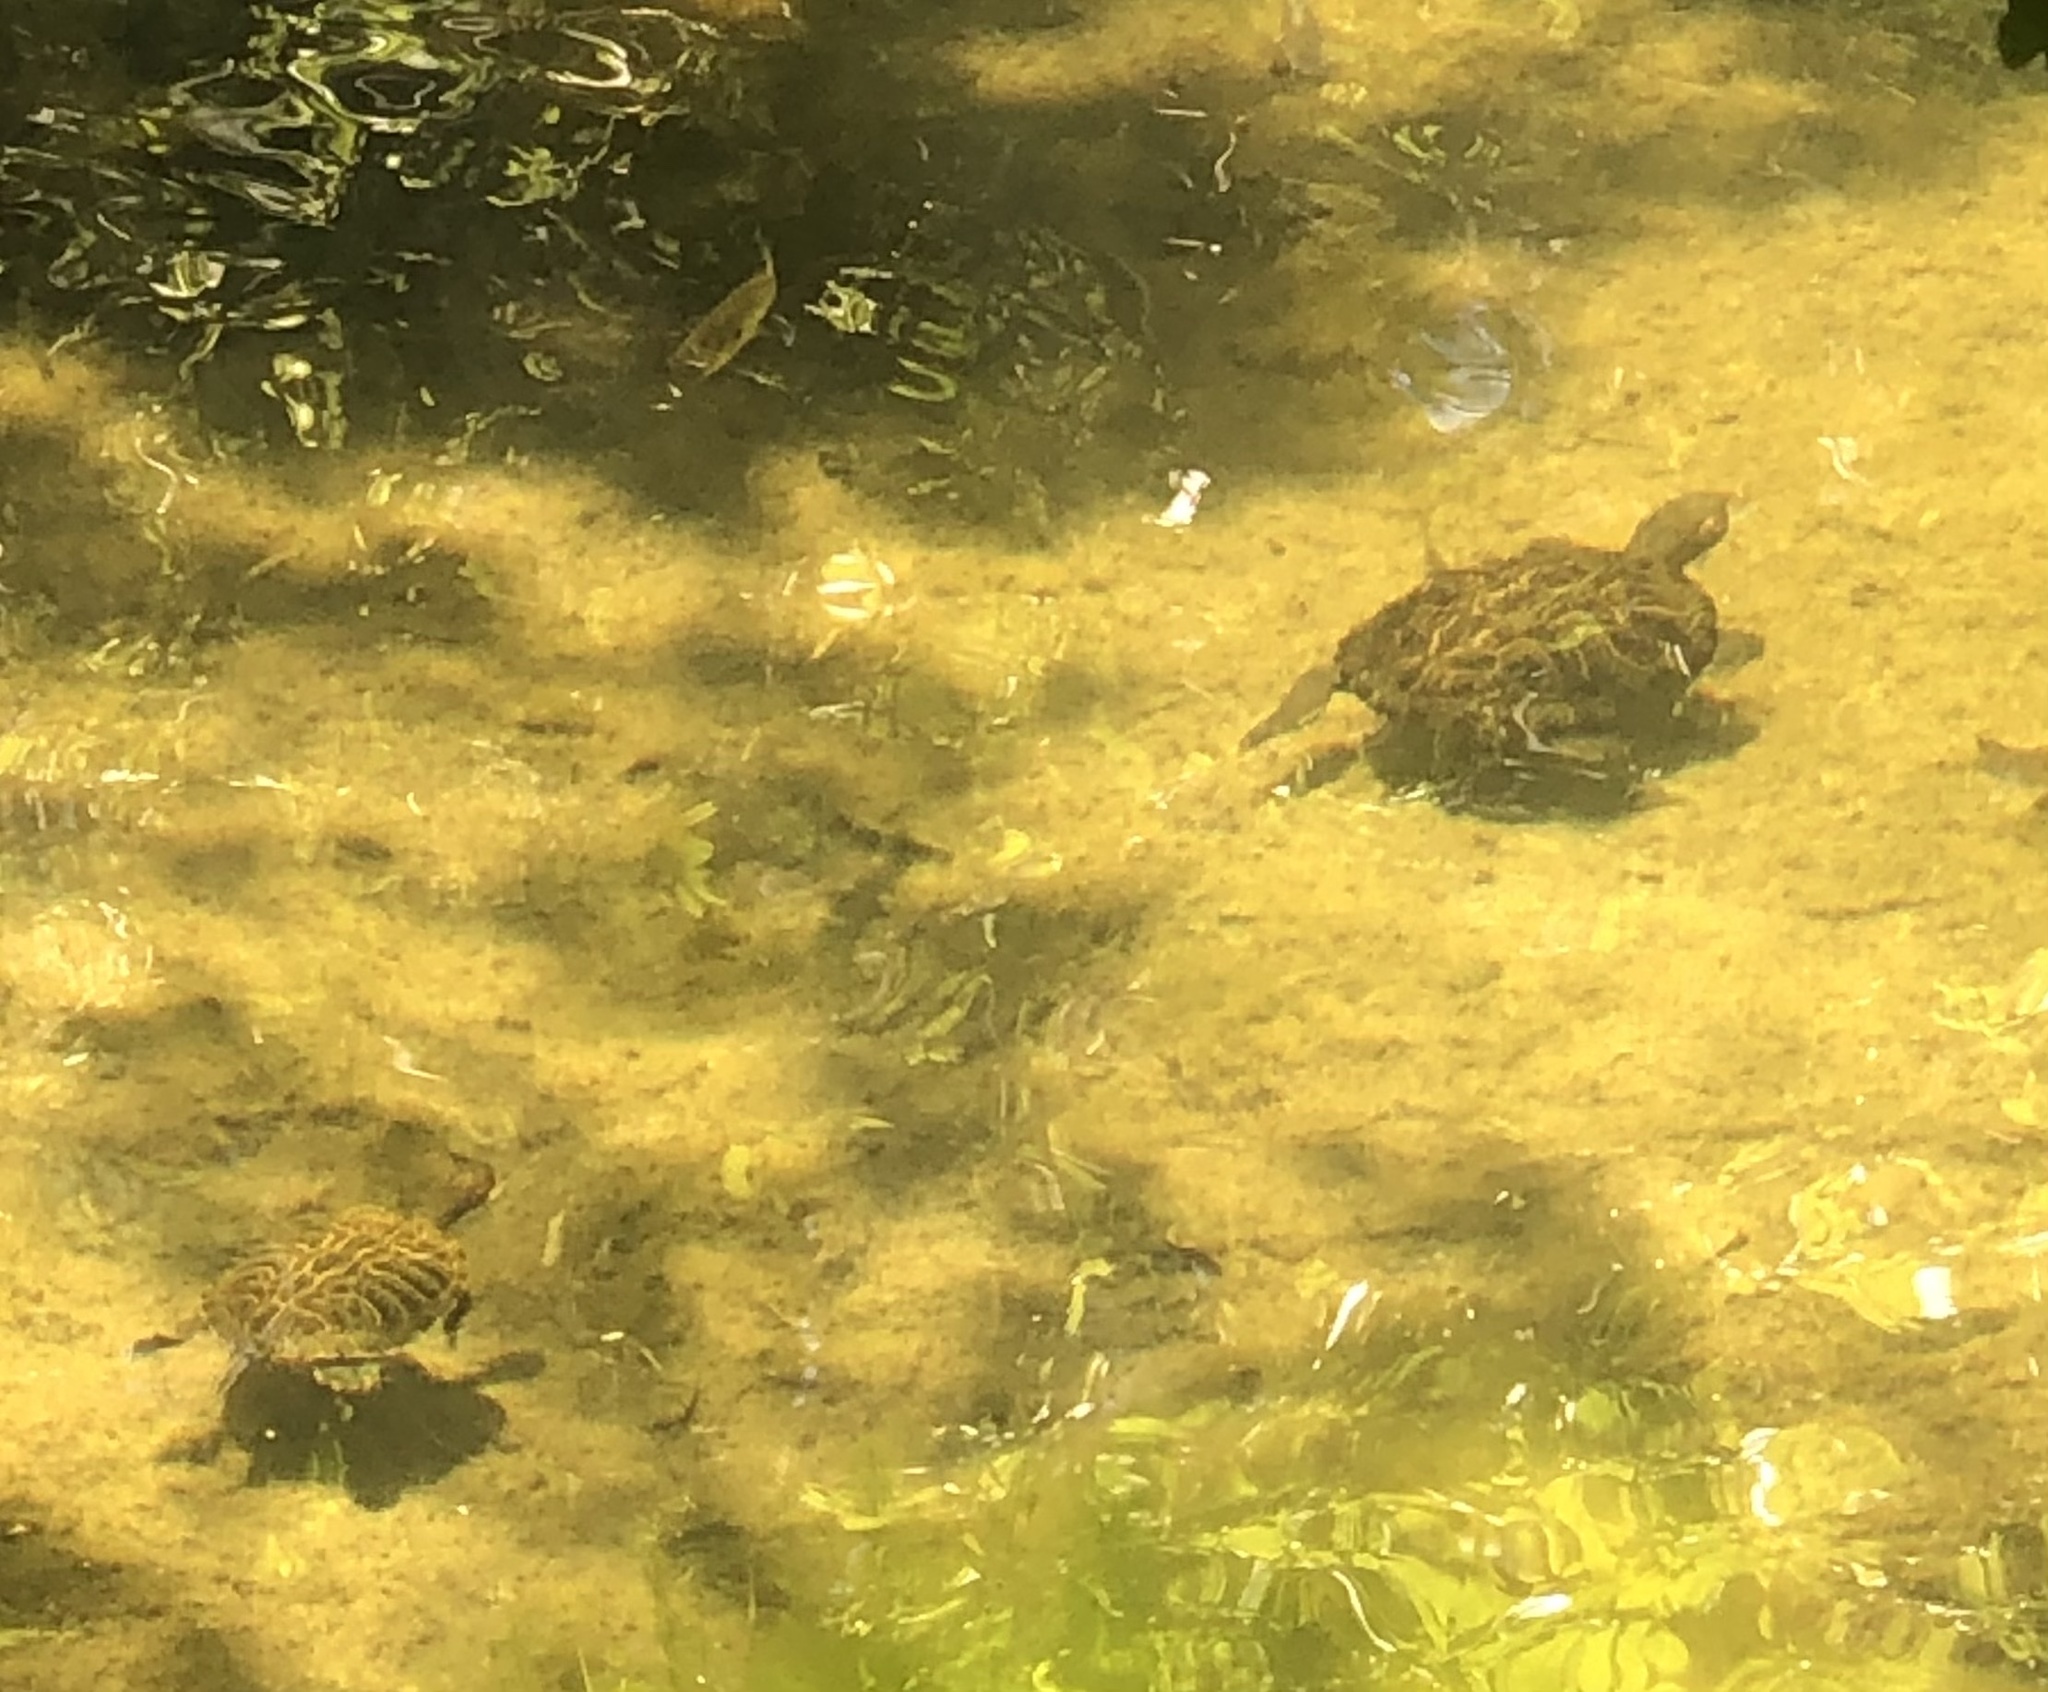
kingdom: Animalia
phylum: Chordata
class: Testudines
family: Emydidae
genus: Trachemys
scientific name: Trachemys scripta
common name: Slider
